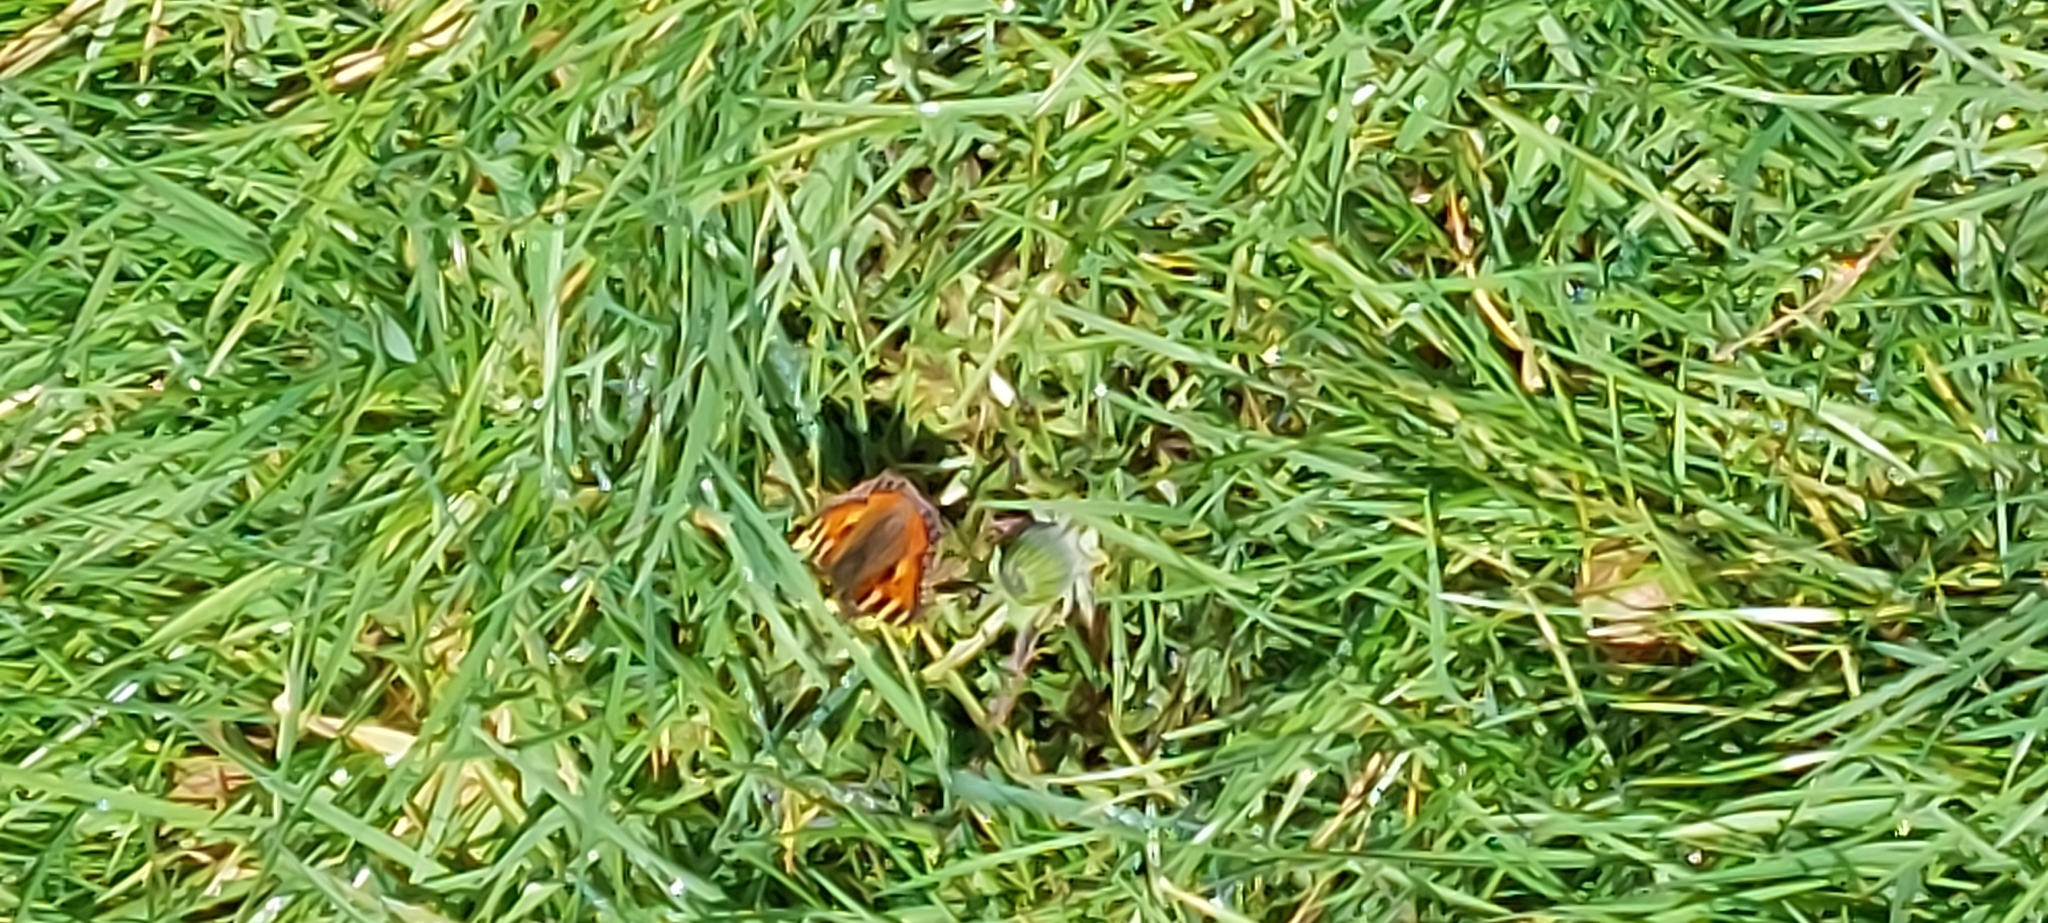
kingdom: Animalia
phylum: Arthropoda
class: Insecta
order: Lepidoptera
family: Nymphalidae
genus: Aglais
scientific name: Aglais urticae
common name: Small tortoiseshell
